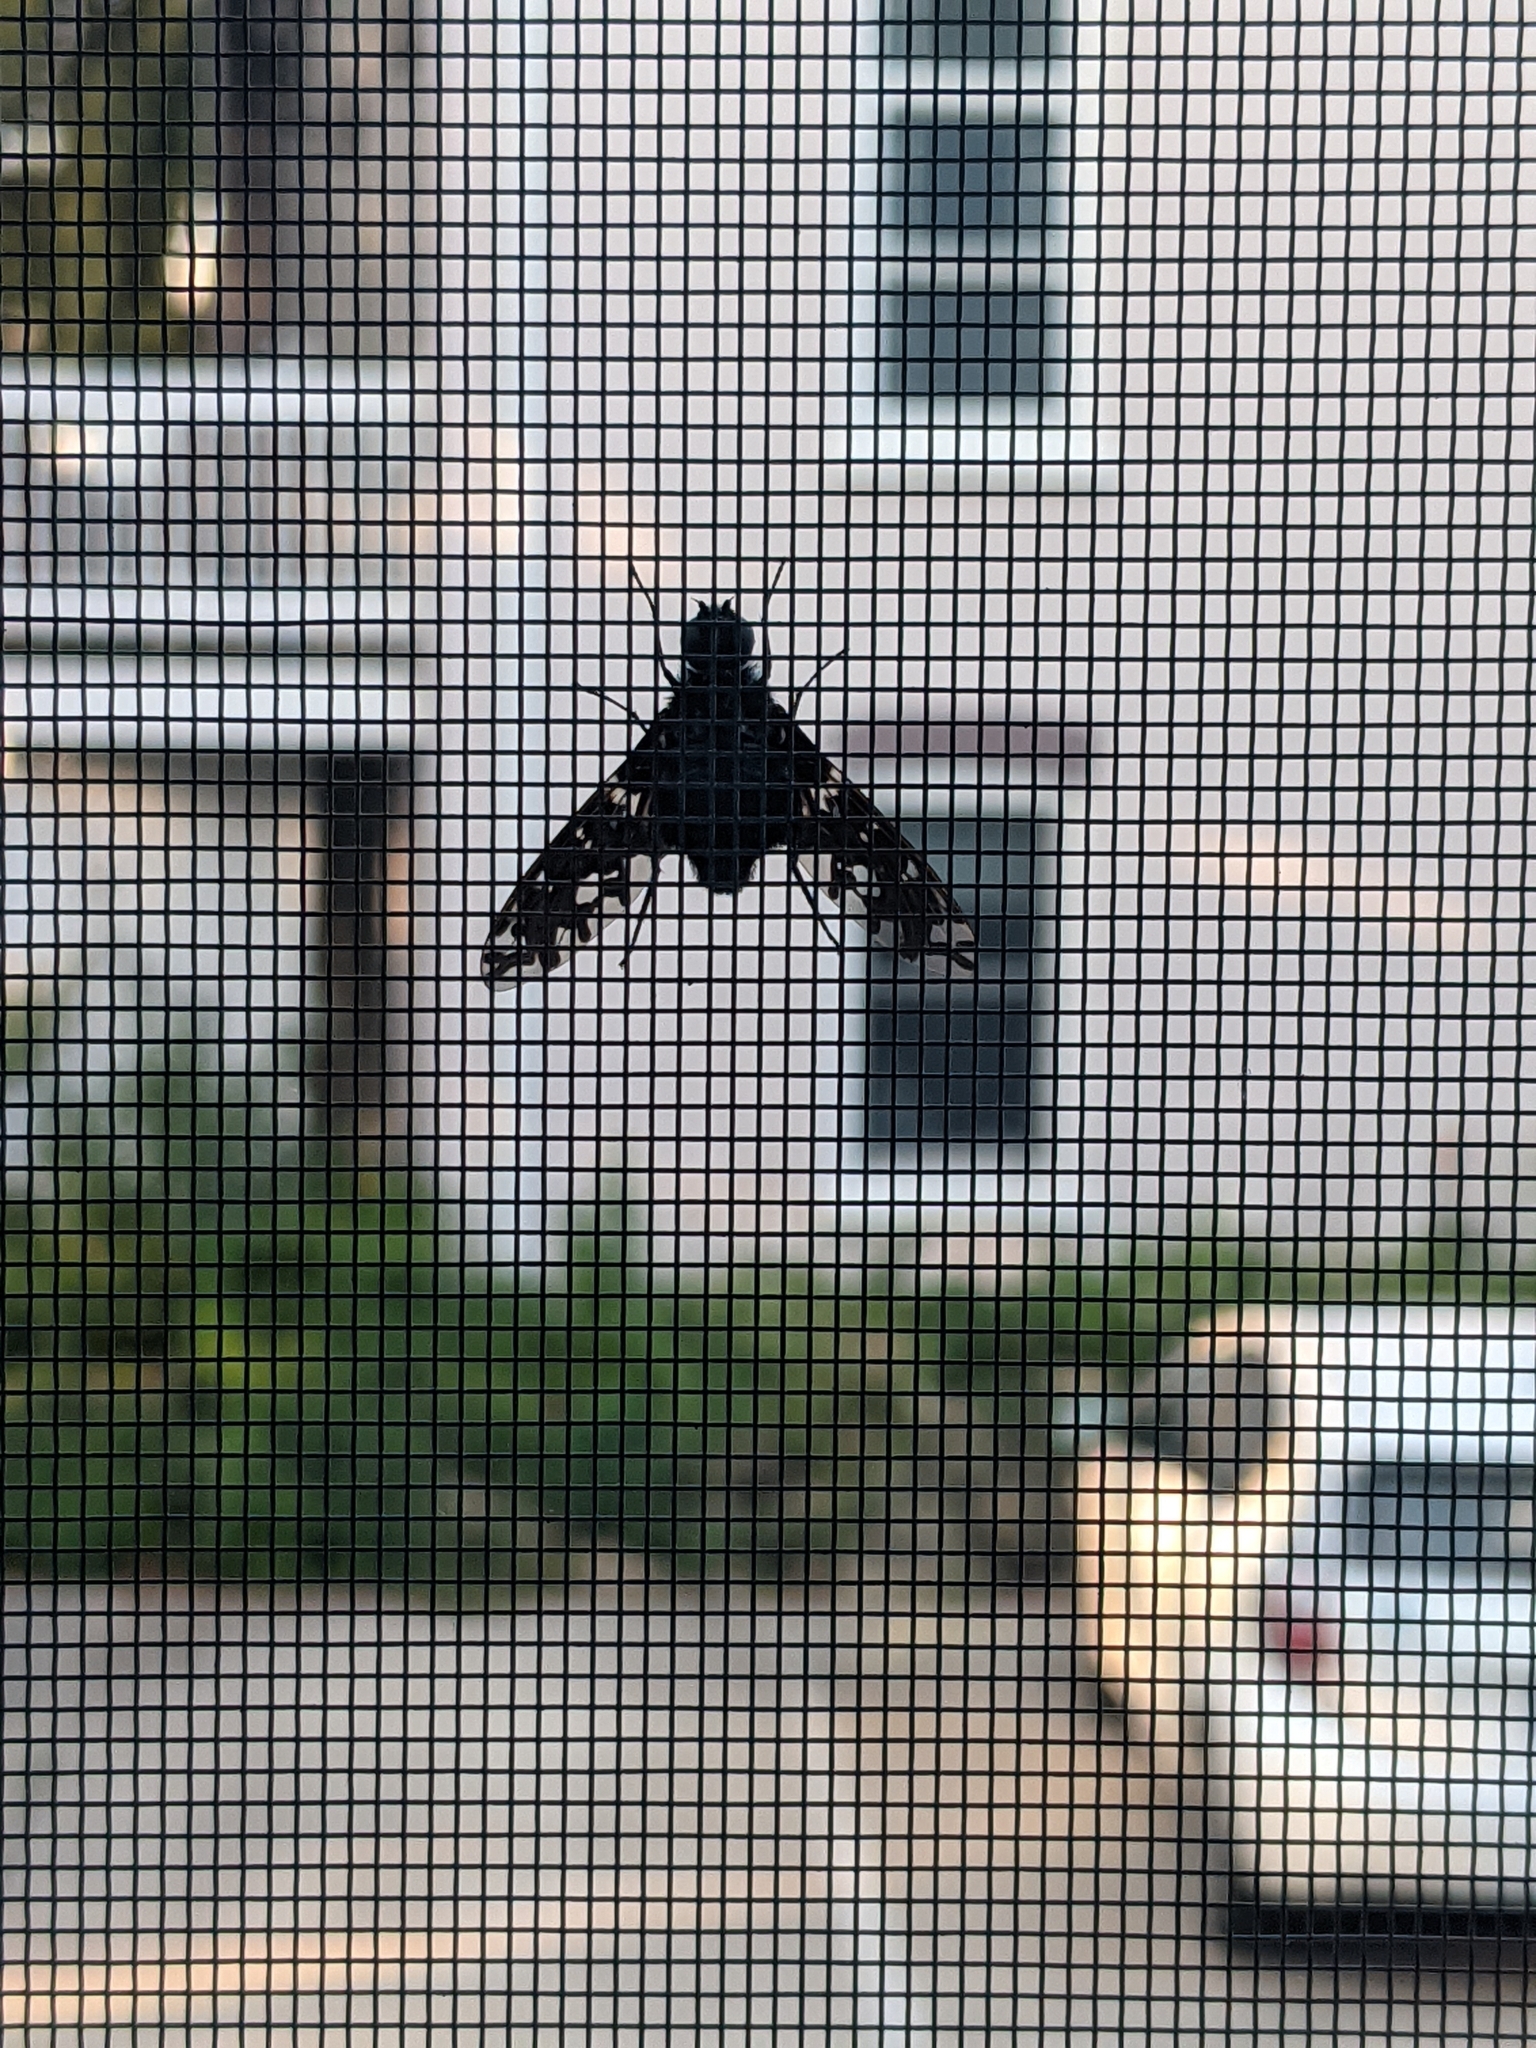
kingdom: Animalia
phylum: Arthropoda
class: Insecta
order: Diptera
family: Bombyliidae
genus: Xenox
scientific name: Xenox tigrinus
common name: Tiger bee fly
